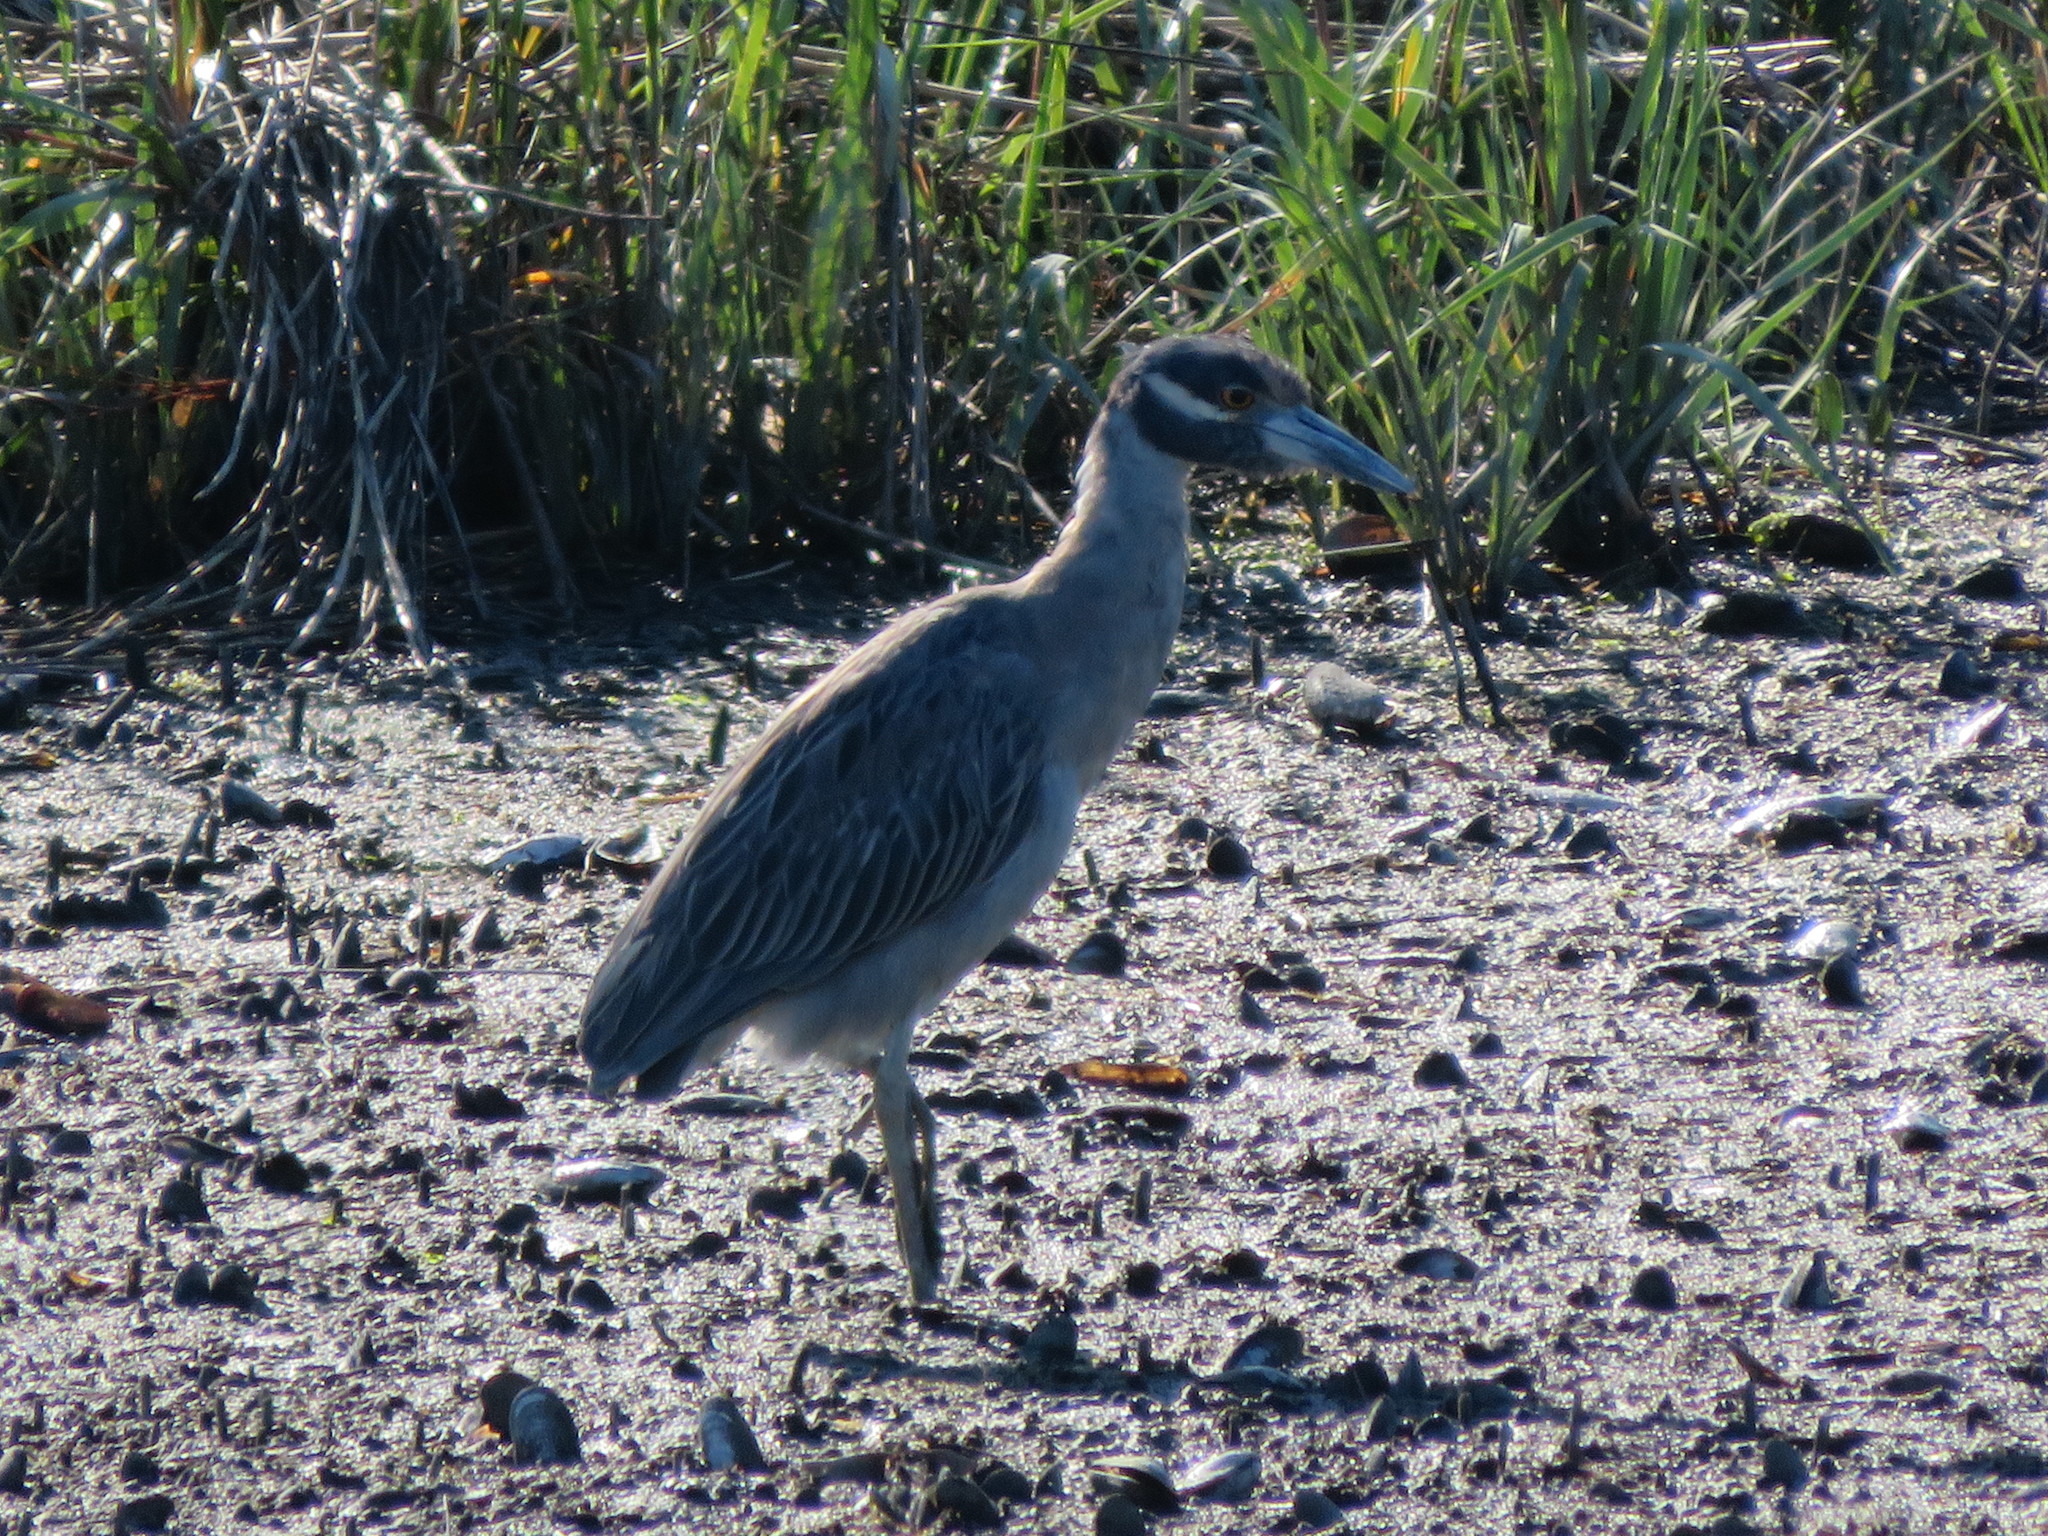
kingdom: Animalia
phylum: Chordata
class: Aves
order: Pelecaniformes
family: Ardeidae
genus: Nyctanassa
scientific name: Nyctanassa violacea
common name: Yellow-crowned night heron
